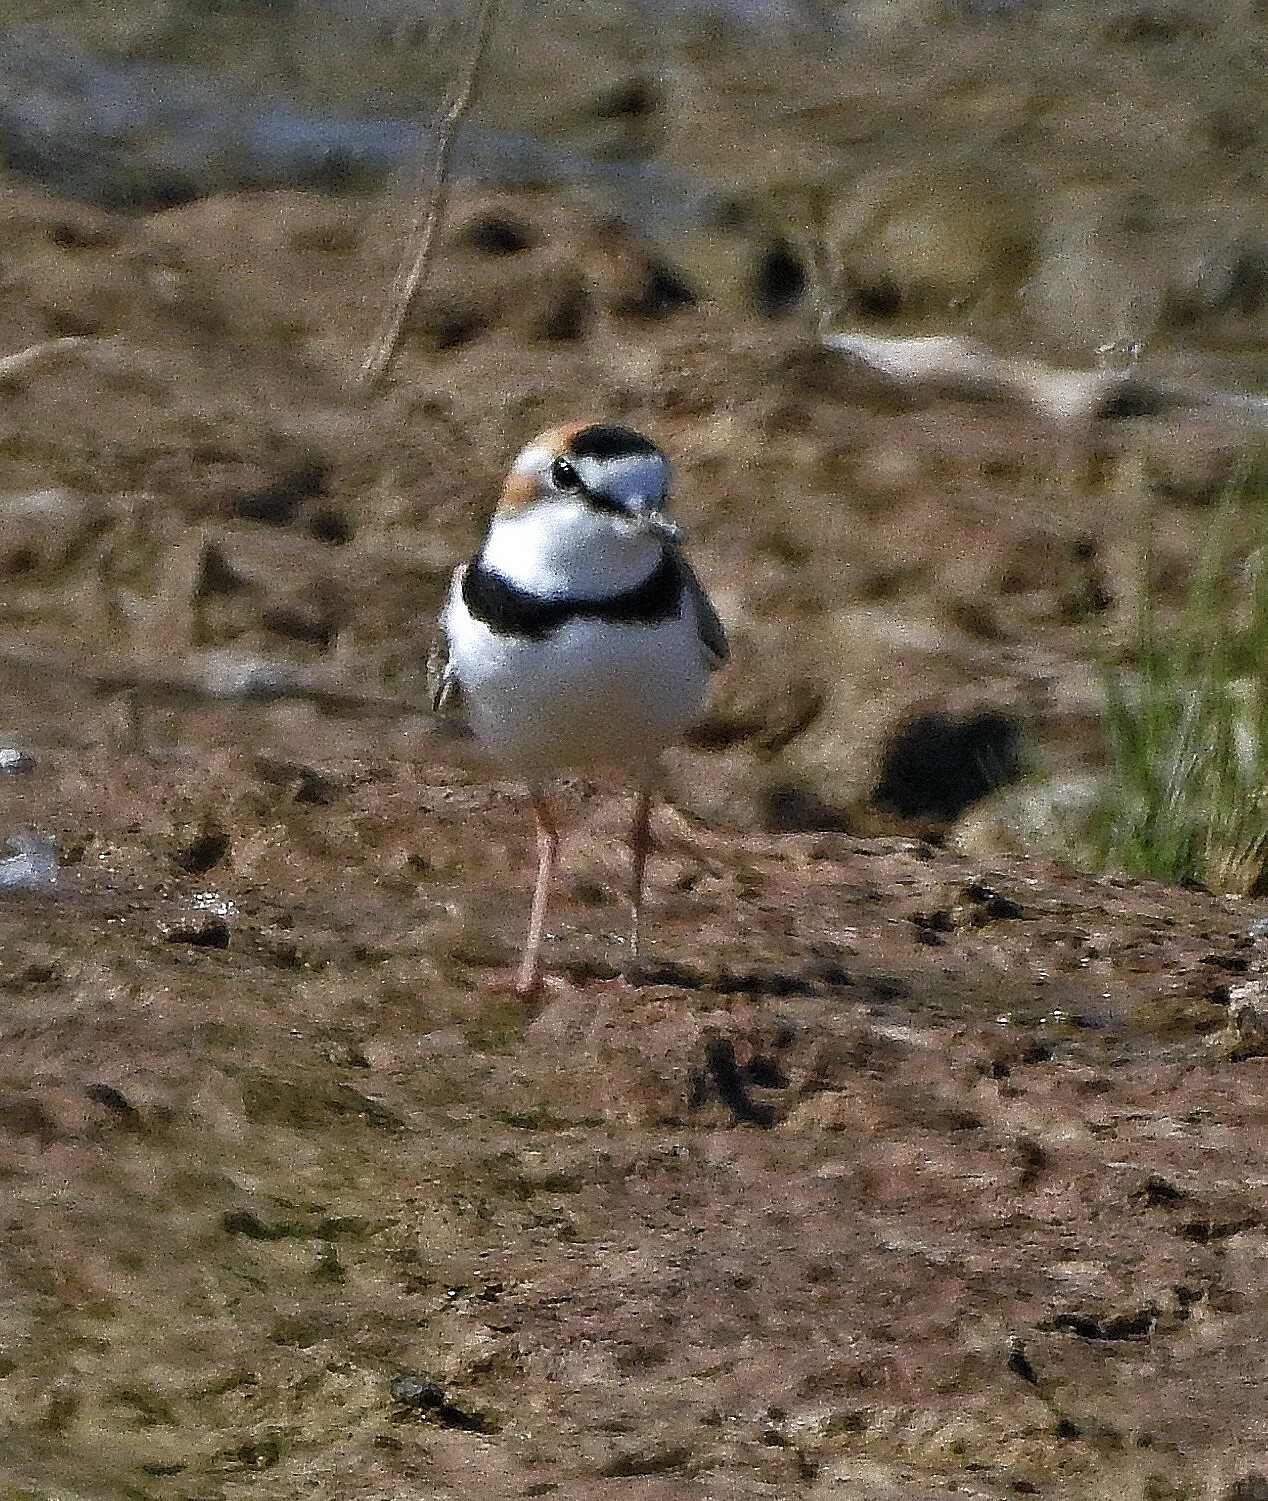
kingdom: Animalia
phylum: Chordata
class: Aves
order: Charadriiformes
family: Charadriidae
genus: Anarhynchus
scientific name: Anarhynchus
